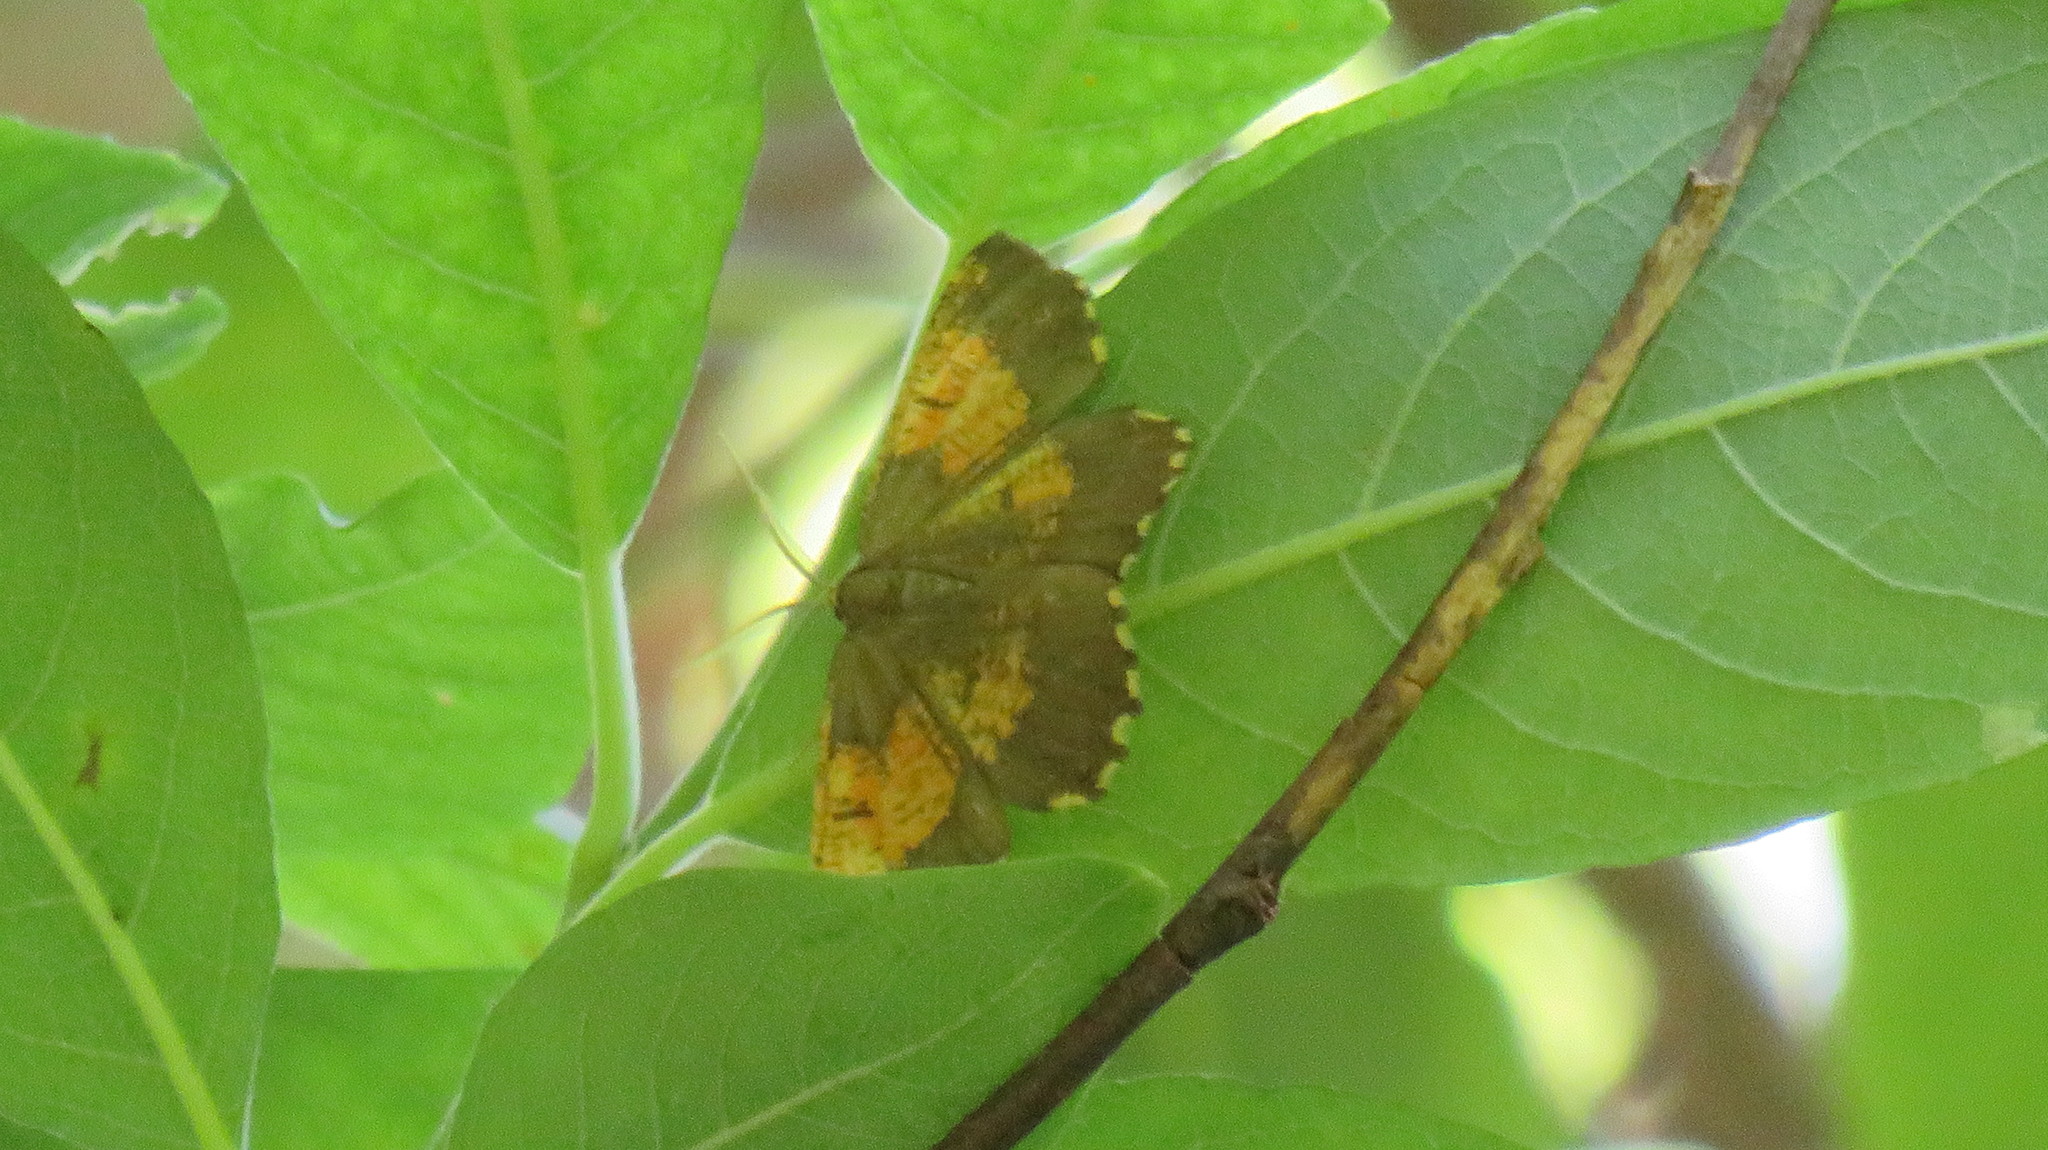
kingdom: Animalia
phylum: Arthropoda
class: Insecta
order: Lepidoptera
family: Geometridae
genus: Angerona
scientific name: Angerona prunaria
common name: Orange moth
